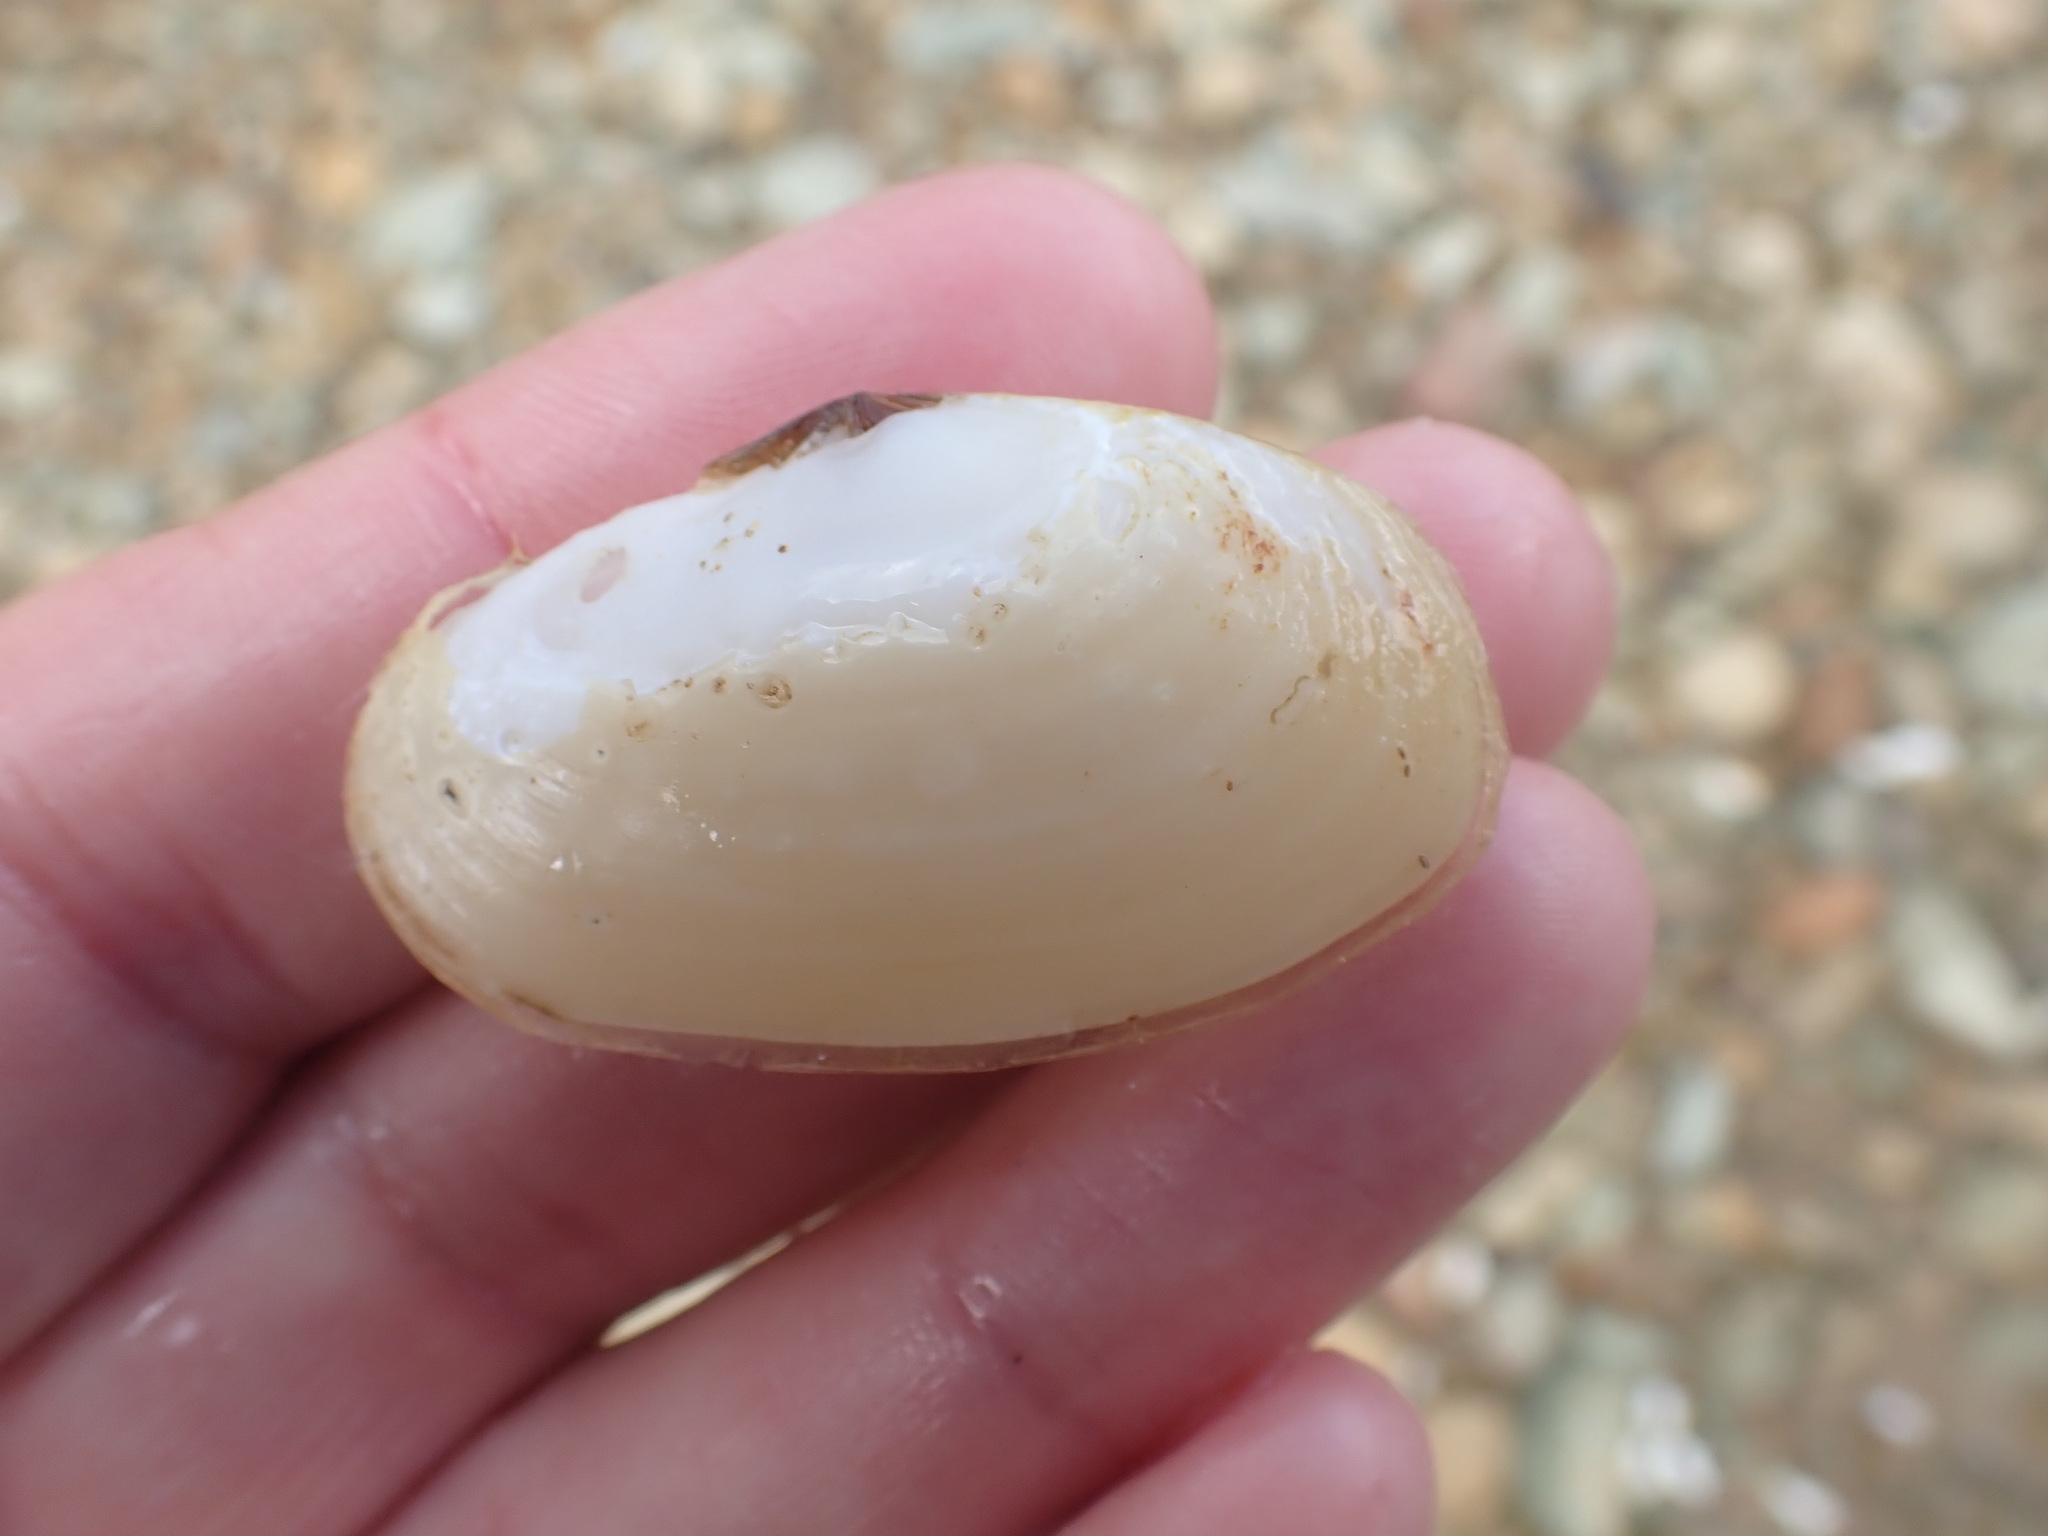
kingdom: Animalia
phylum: Mollusca
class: Bivalvia
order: Venerida
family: Mesodesmatidae
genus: Paphies
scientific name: Paphies australis
